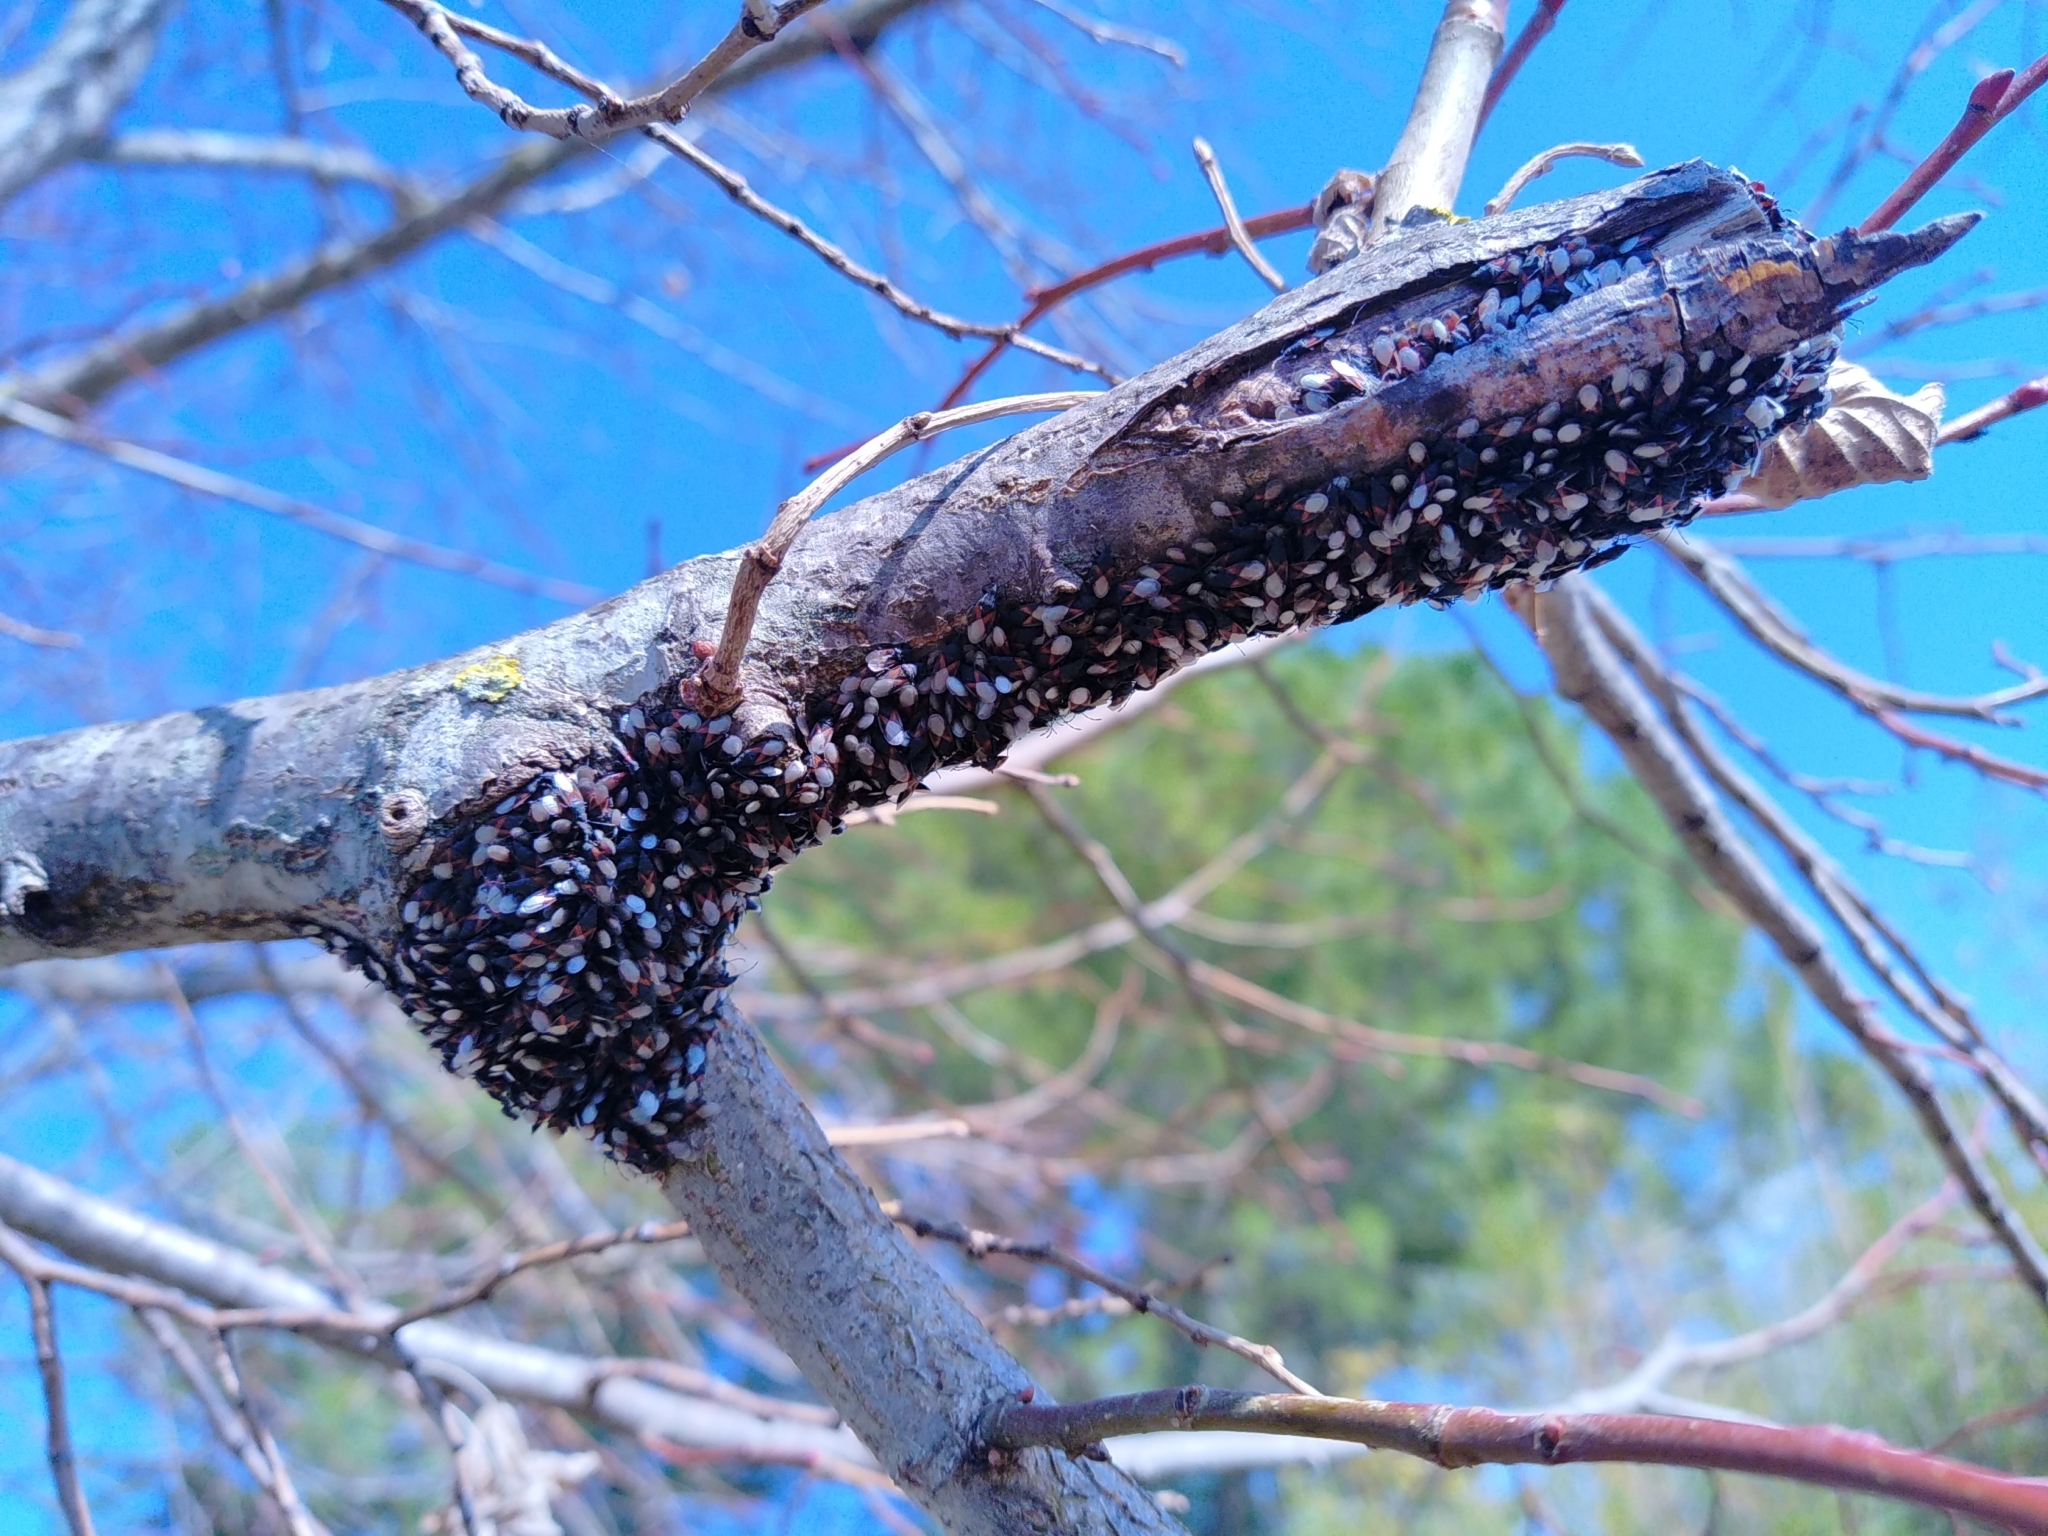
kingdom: Animalia
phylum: Arthropoda
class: Insecta
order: Hemiptera
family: Oxycarenidae
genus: Oxycarenus
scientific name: Oxycarenus lavaterae
